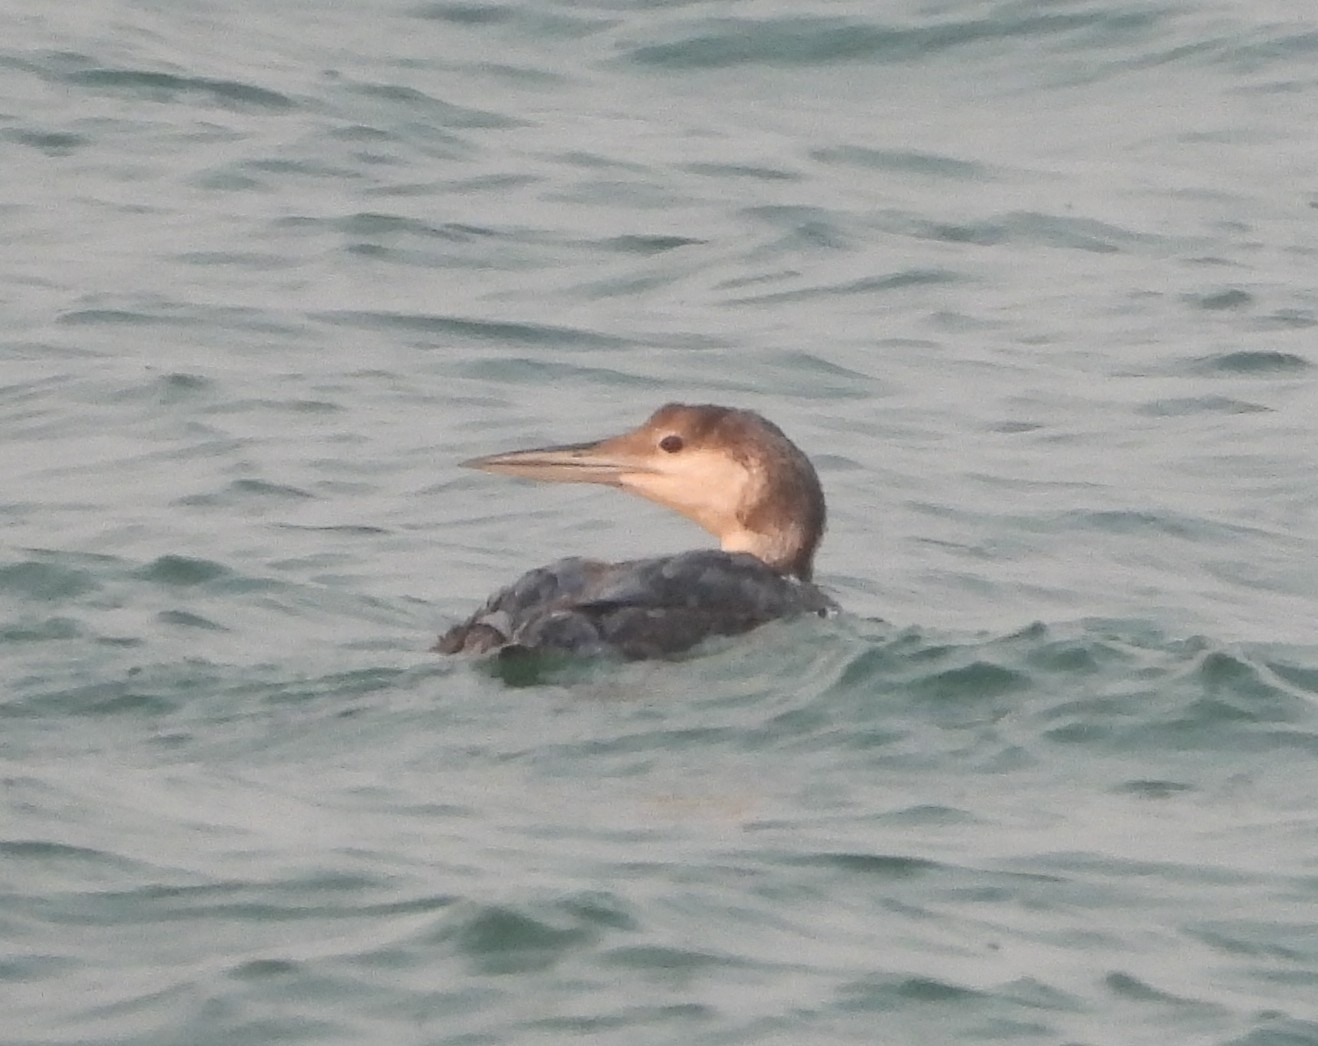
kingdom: Animalia
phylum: Chordata
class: Aves
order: Gaviiformes
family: Gaviidae
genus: Gavia
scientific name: Gavia immer
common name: Common loon
